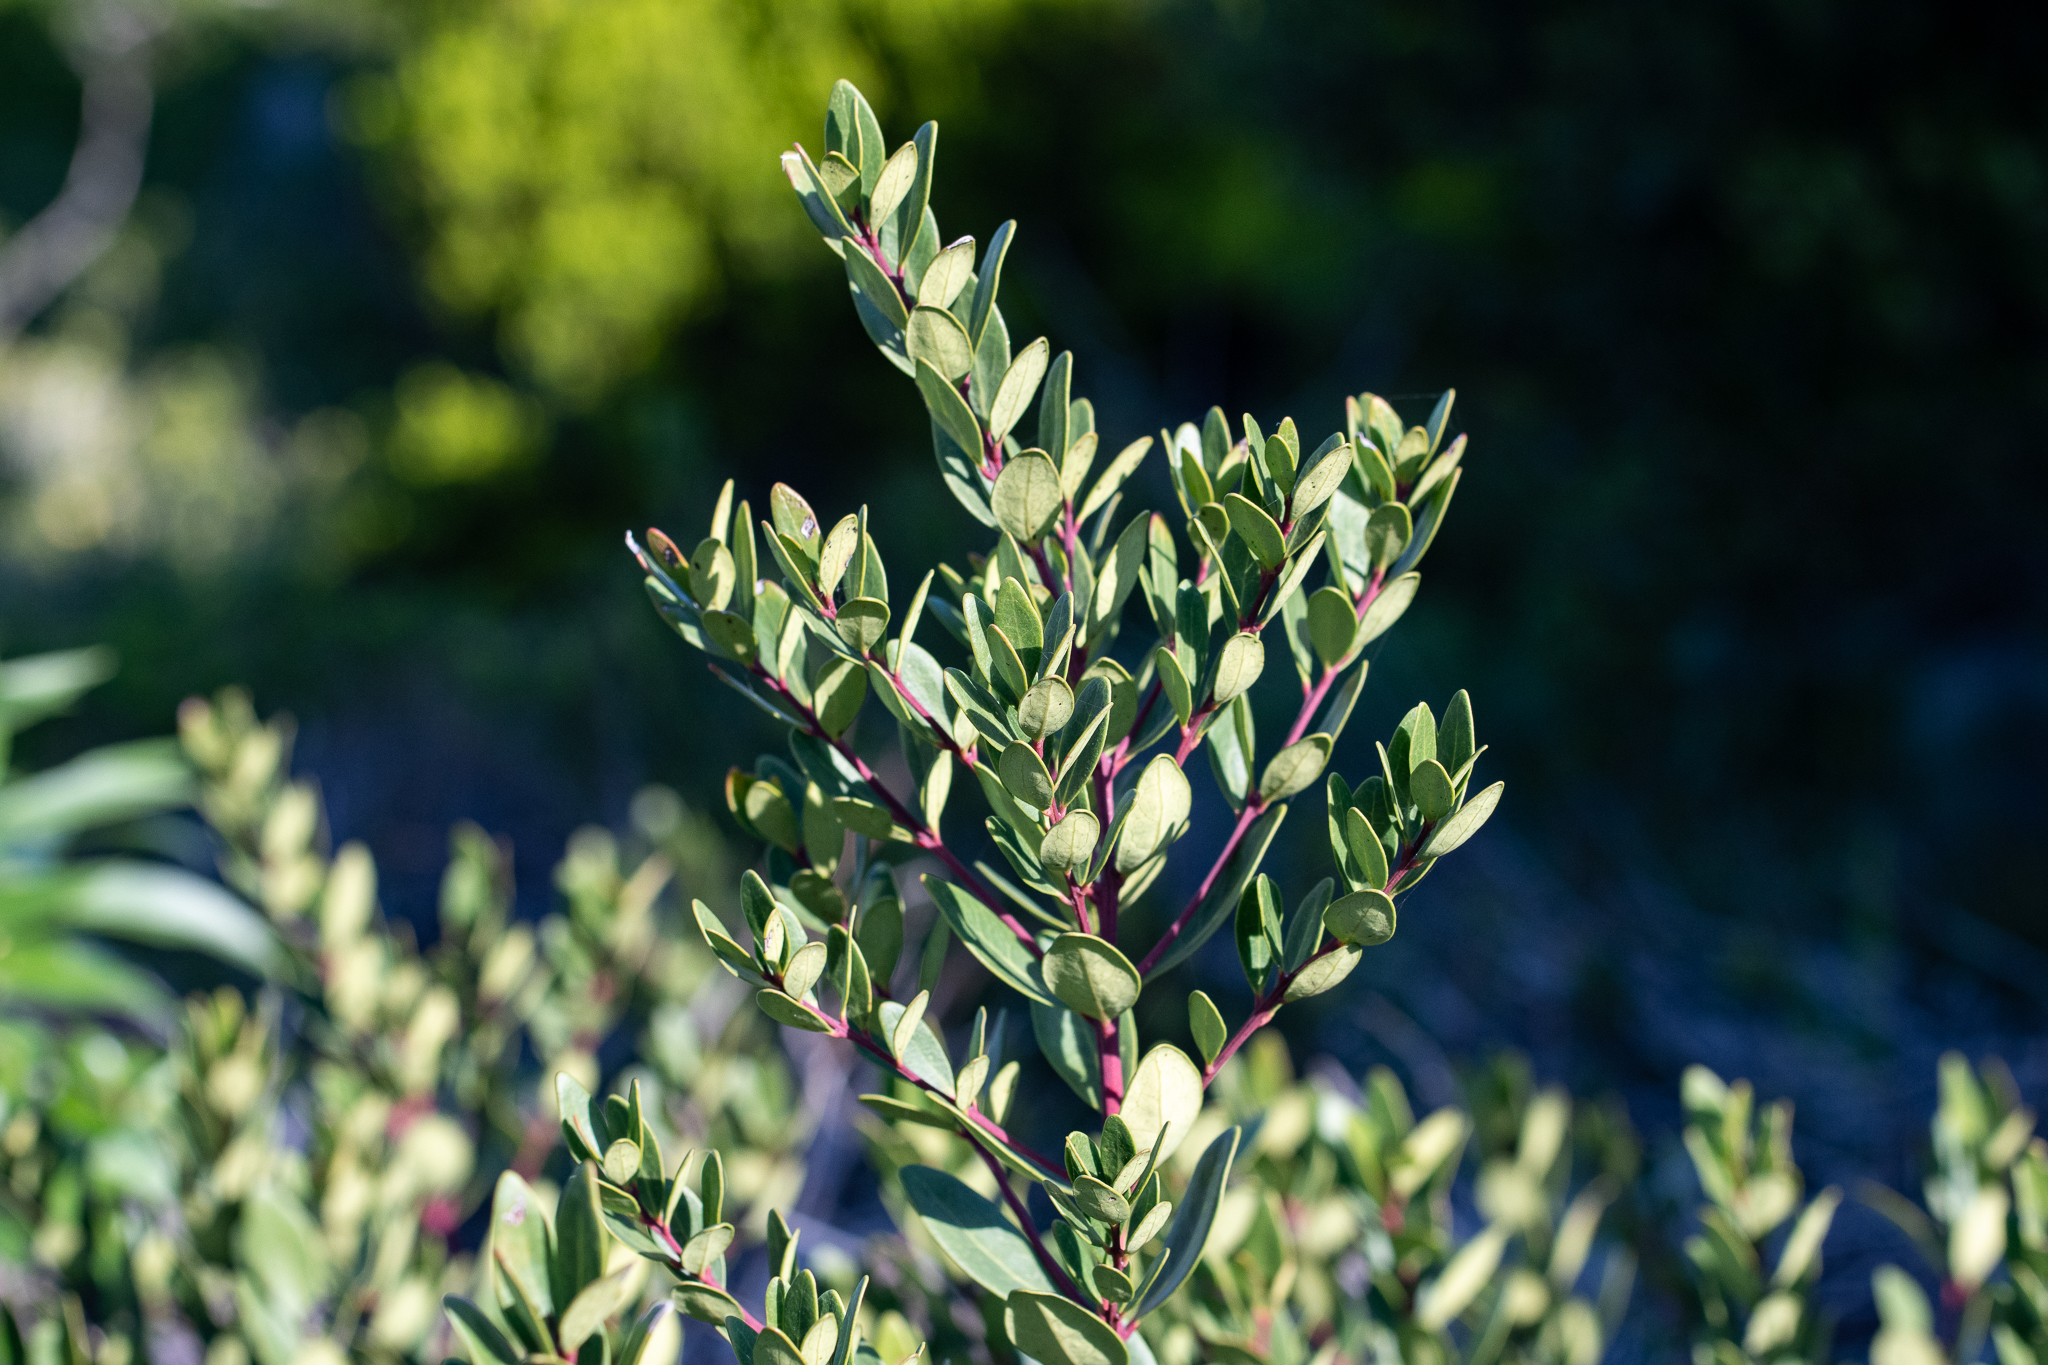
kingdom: Plantae
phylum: Tracheophyta
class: Magnoliopsida
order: Ericales
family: Ebenaceae
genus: Euclea
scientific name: Euclea racemosa
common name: Dune guarri
